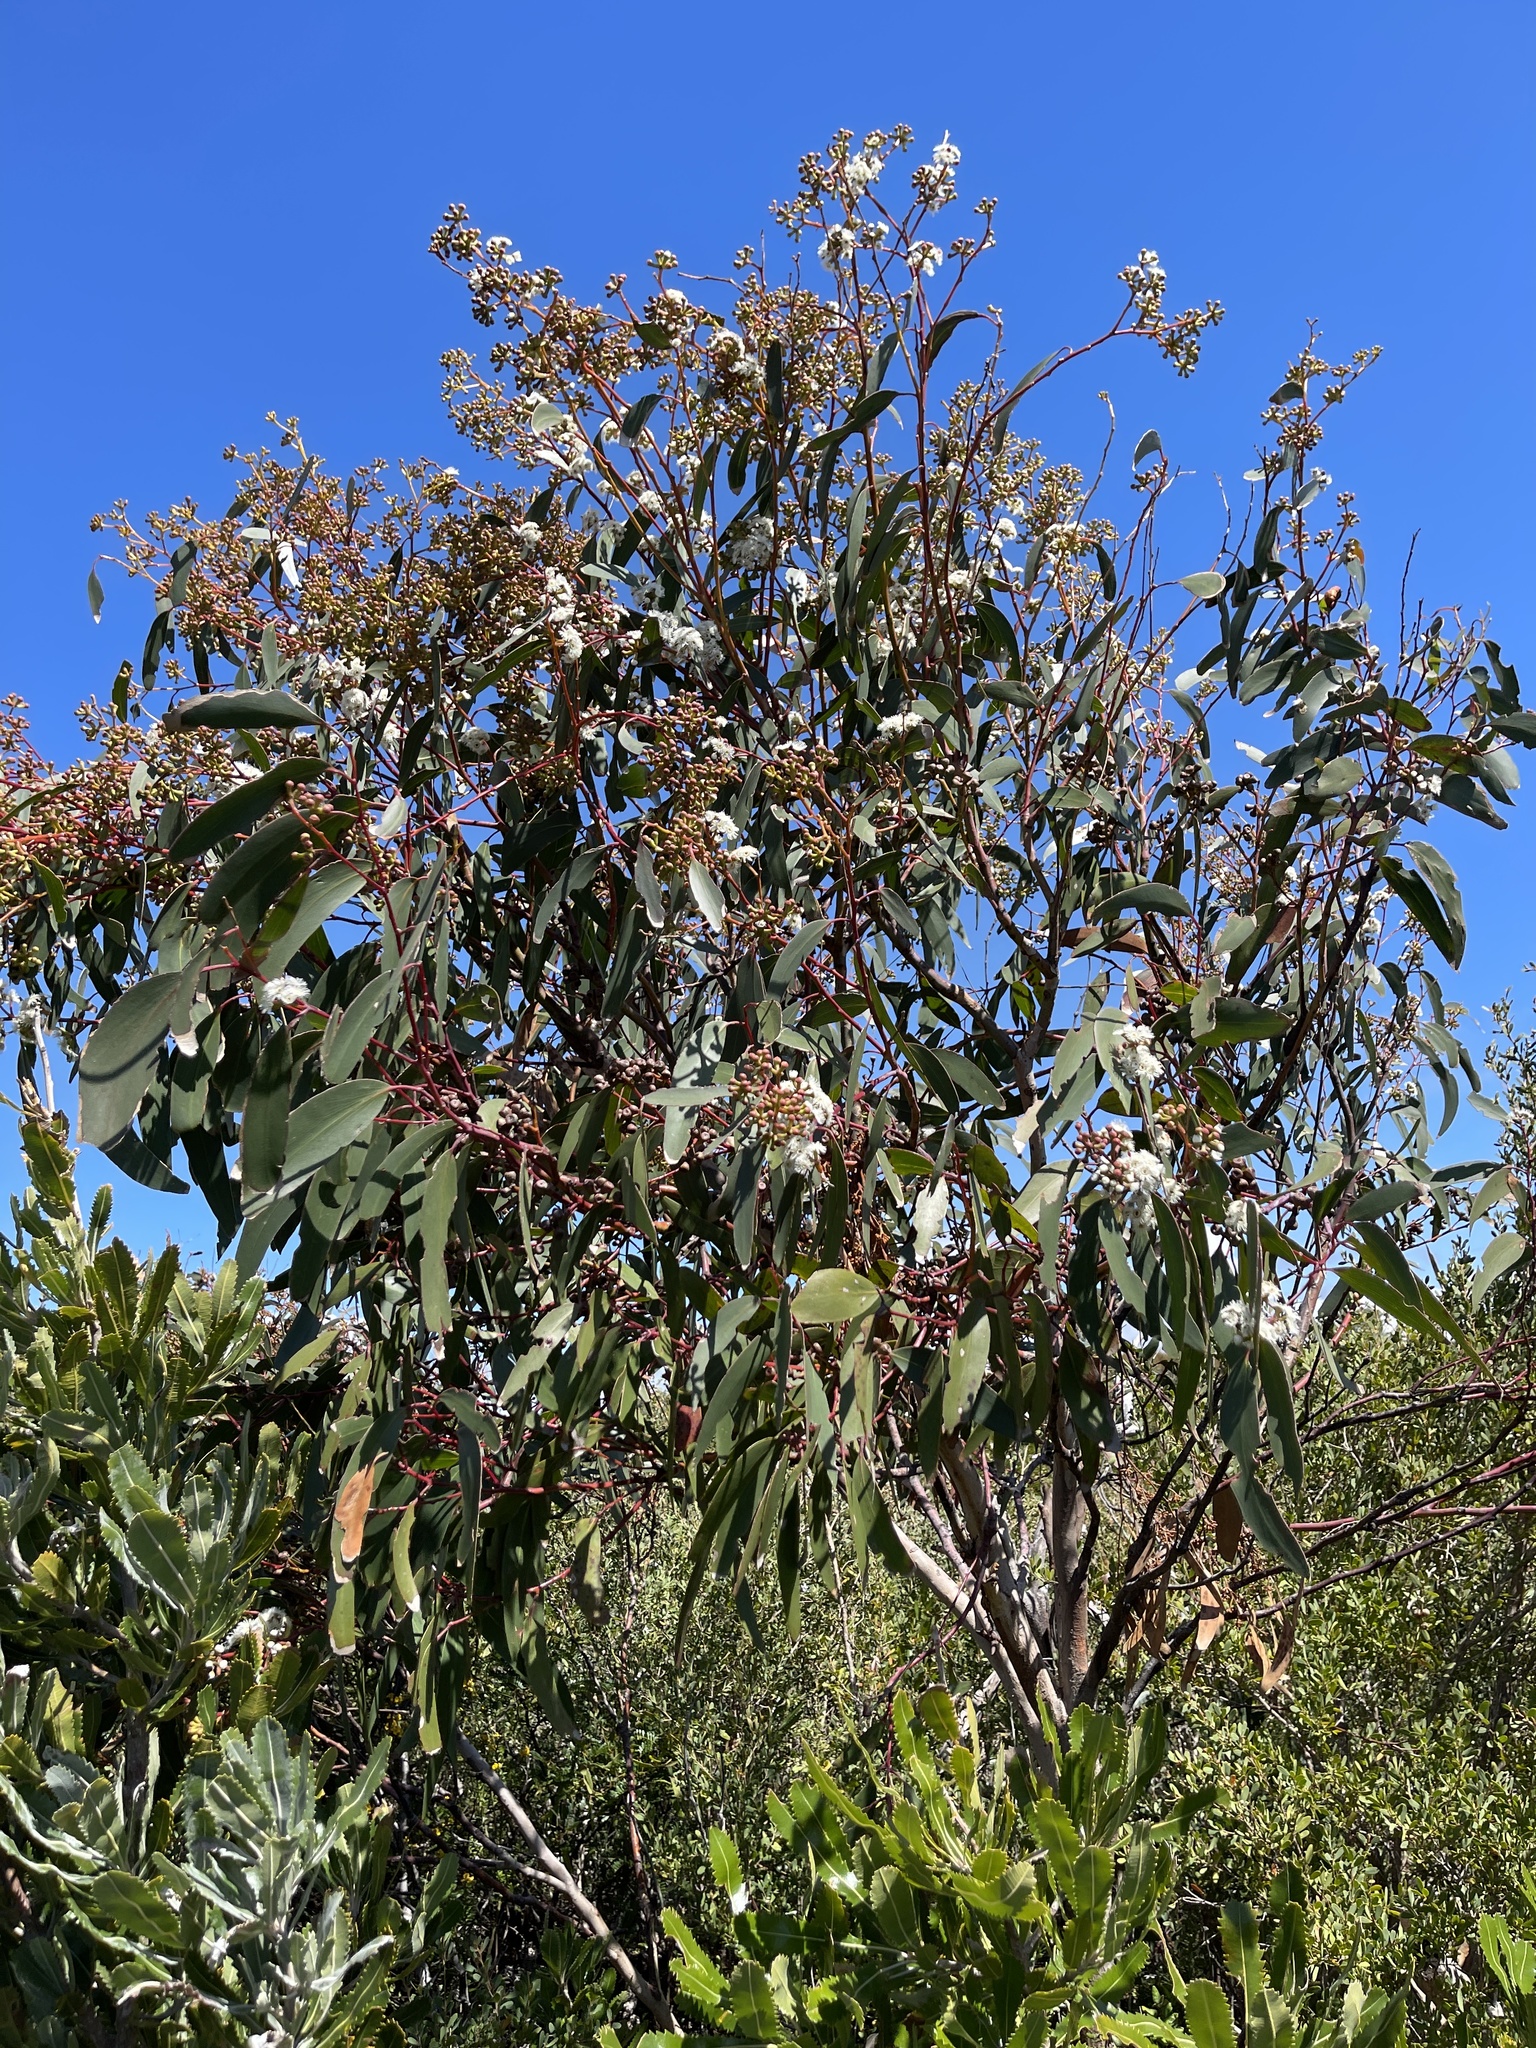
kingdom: Plantae
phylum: Tracheophyta
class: Magnoliopsida
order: Myrtales
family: Myrtaceae
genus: Eucalyptus
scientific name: Eucalyptus sieberi
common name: Black-ash
